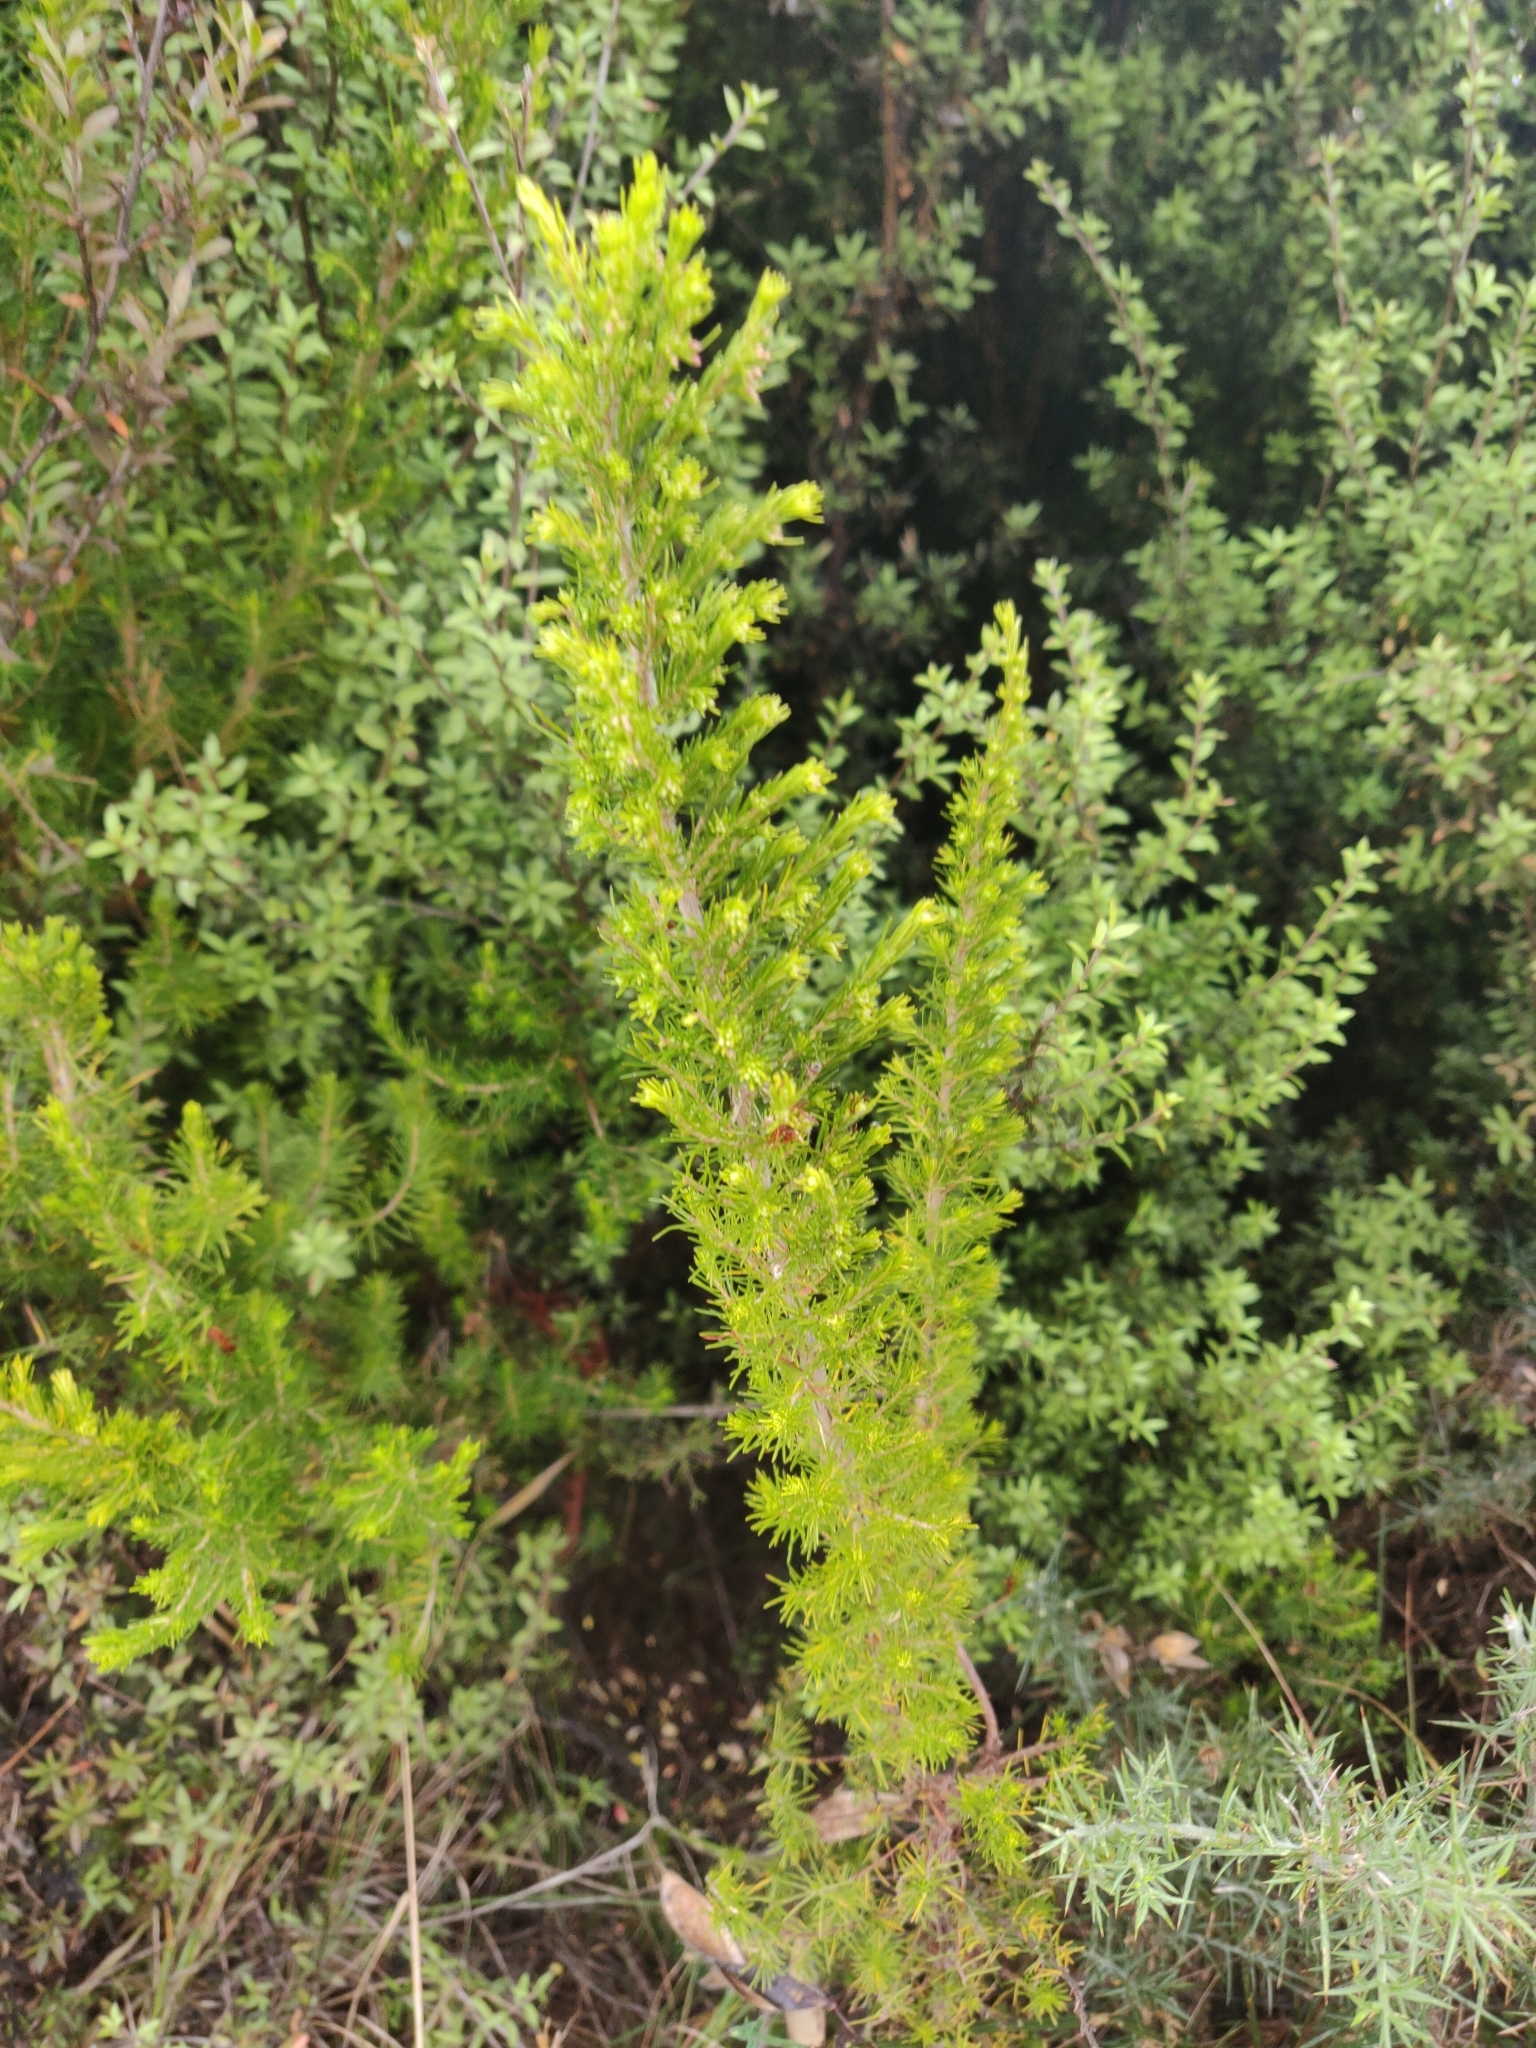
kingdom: Plantae
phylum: Tracheophyta
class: Magnoliopsida
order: Ericales
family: Ericaceae
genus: Erica
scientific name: Erica lusitanica
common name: Spanish heath
